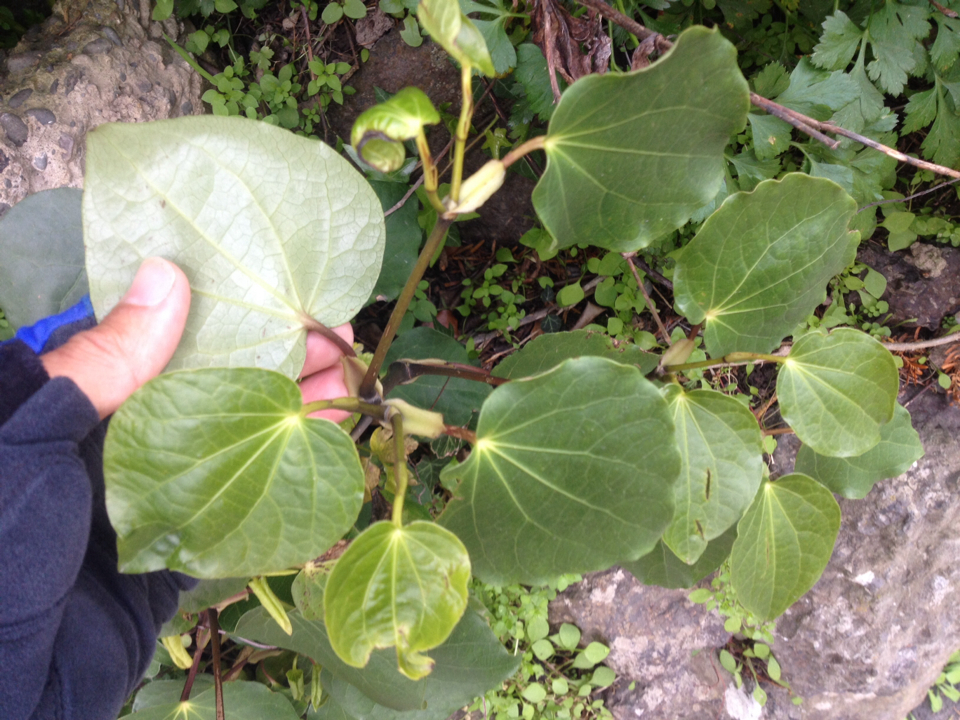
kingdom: Plantae
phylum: Tracheophyta
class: Magnoliopsida
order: Piperales
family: Piperaceae
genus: Macropiper
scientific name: Macropiper excelsum
